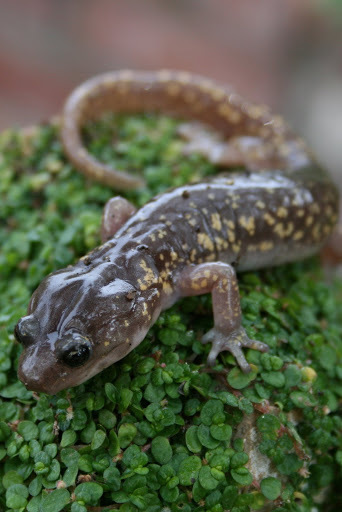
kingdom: Animalia
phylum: Chordata
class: Amphibia
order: Caudata
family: Plethodontidae
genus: Aneides
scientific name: Aneides lugubris
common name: Arboreal salamander
